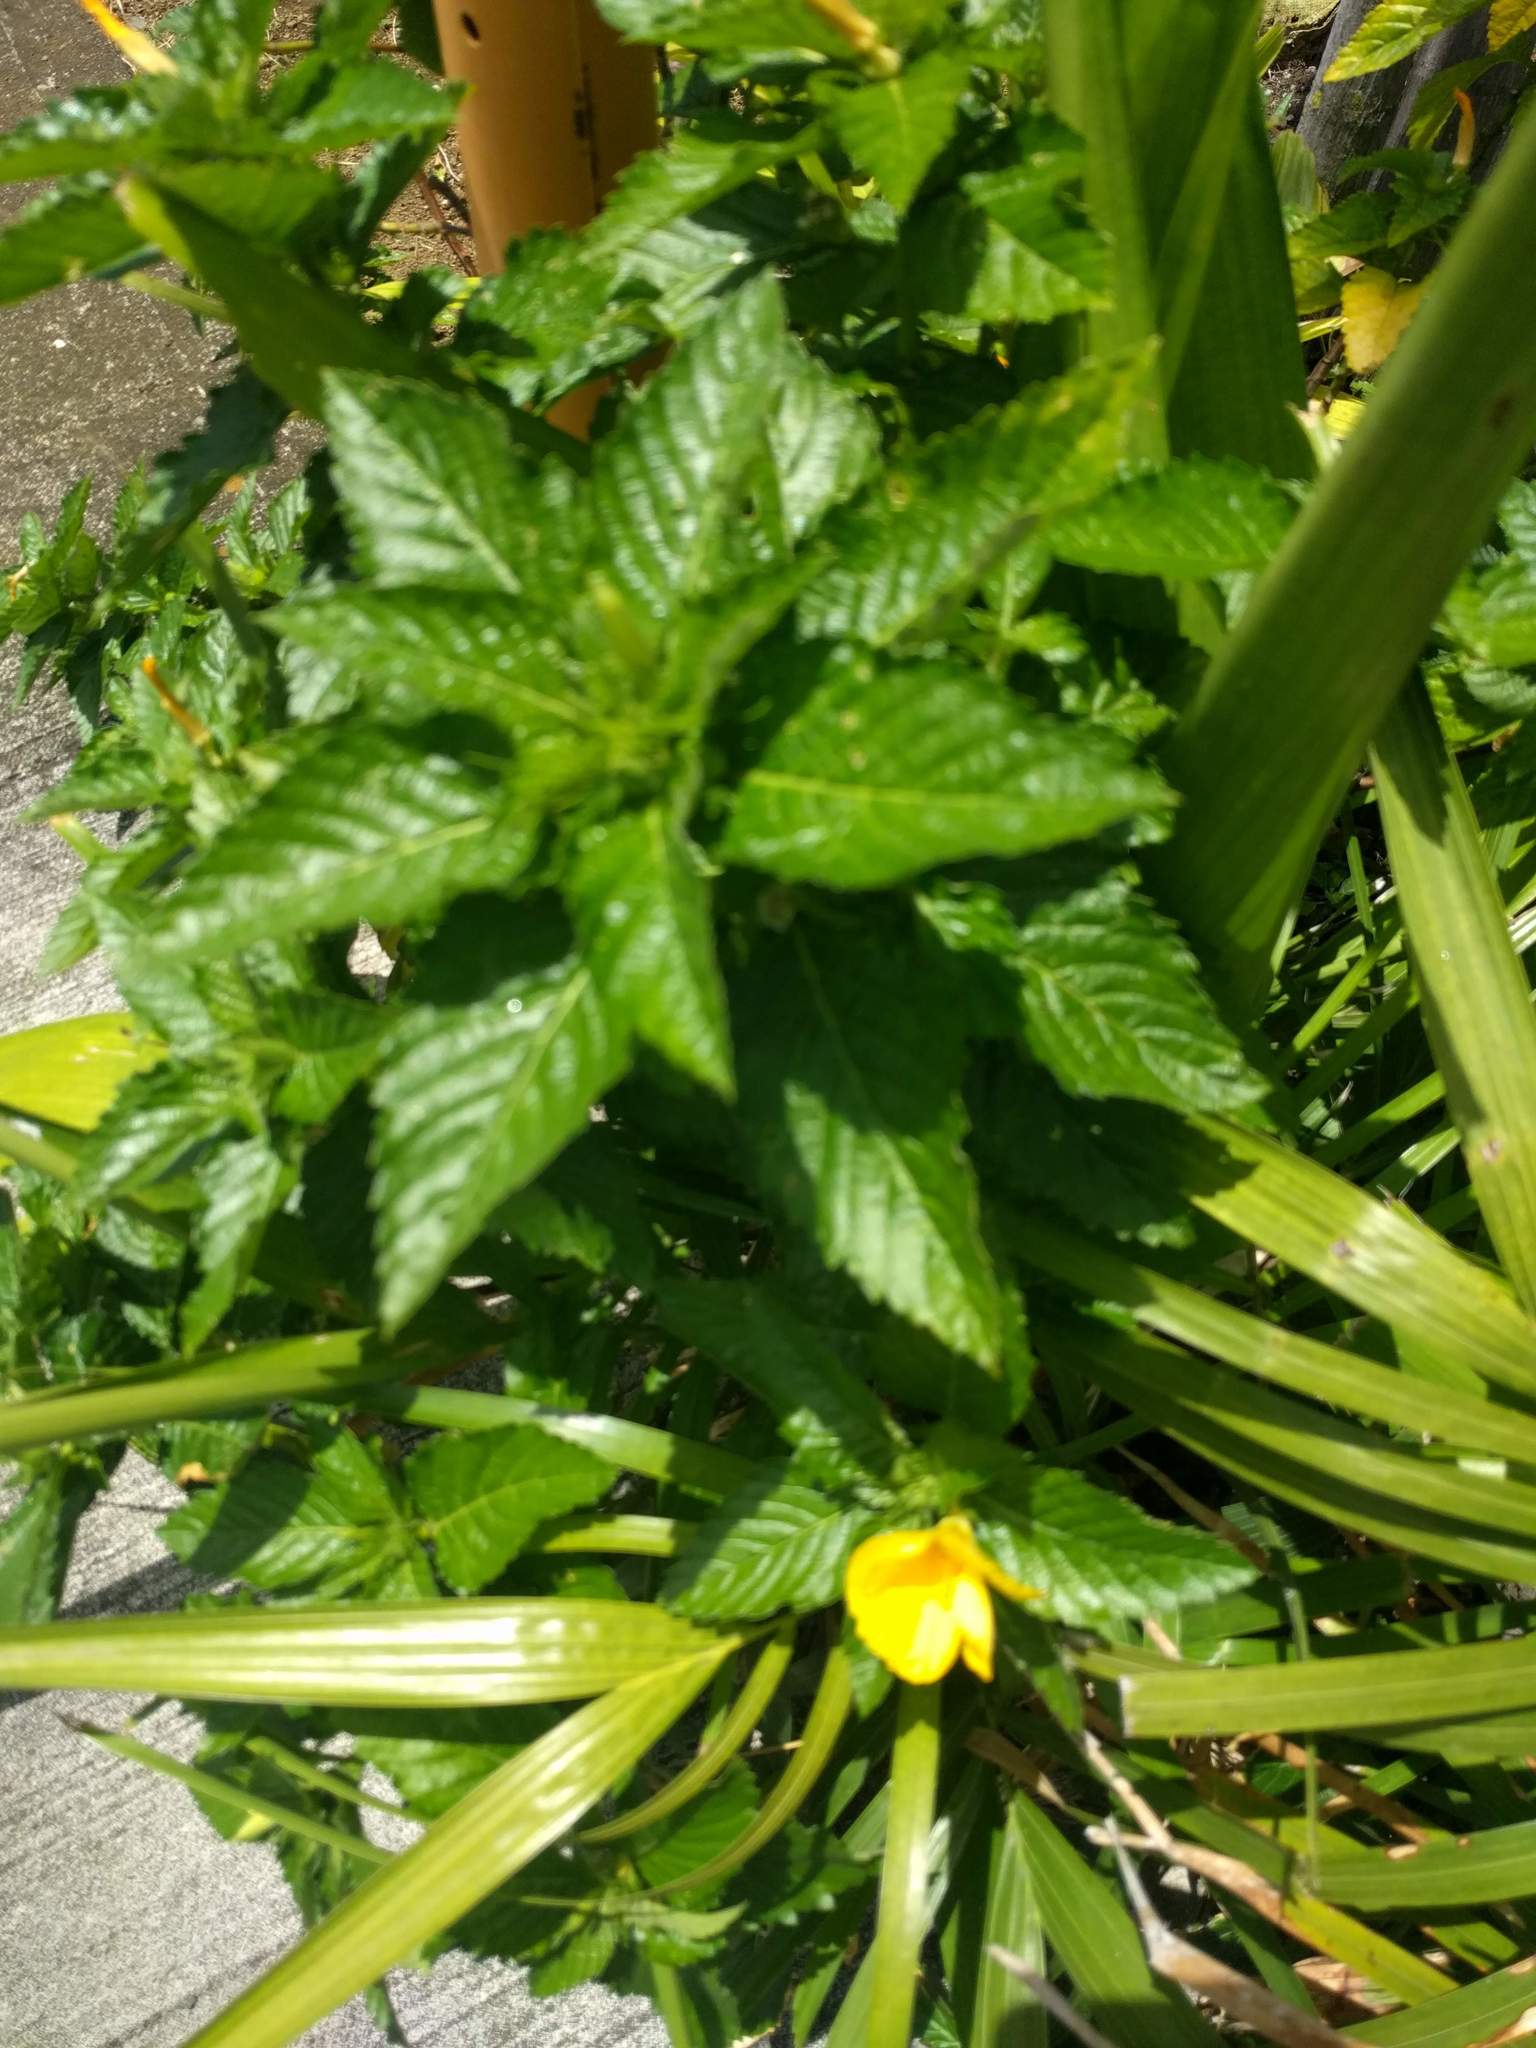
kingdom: Plantae
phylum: Tracheophyta
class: Magnoliopsida
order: Malpighiales
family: Turneraceae
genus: Turnera
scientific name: Turnera ulmifolia
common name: Ramgoat dashalong
